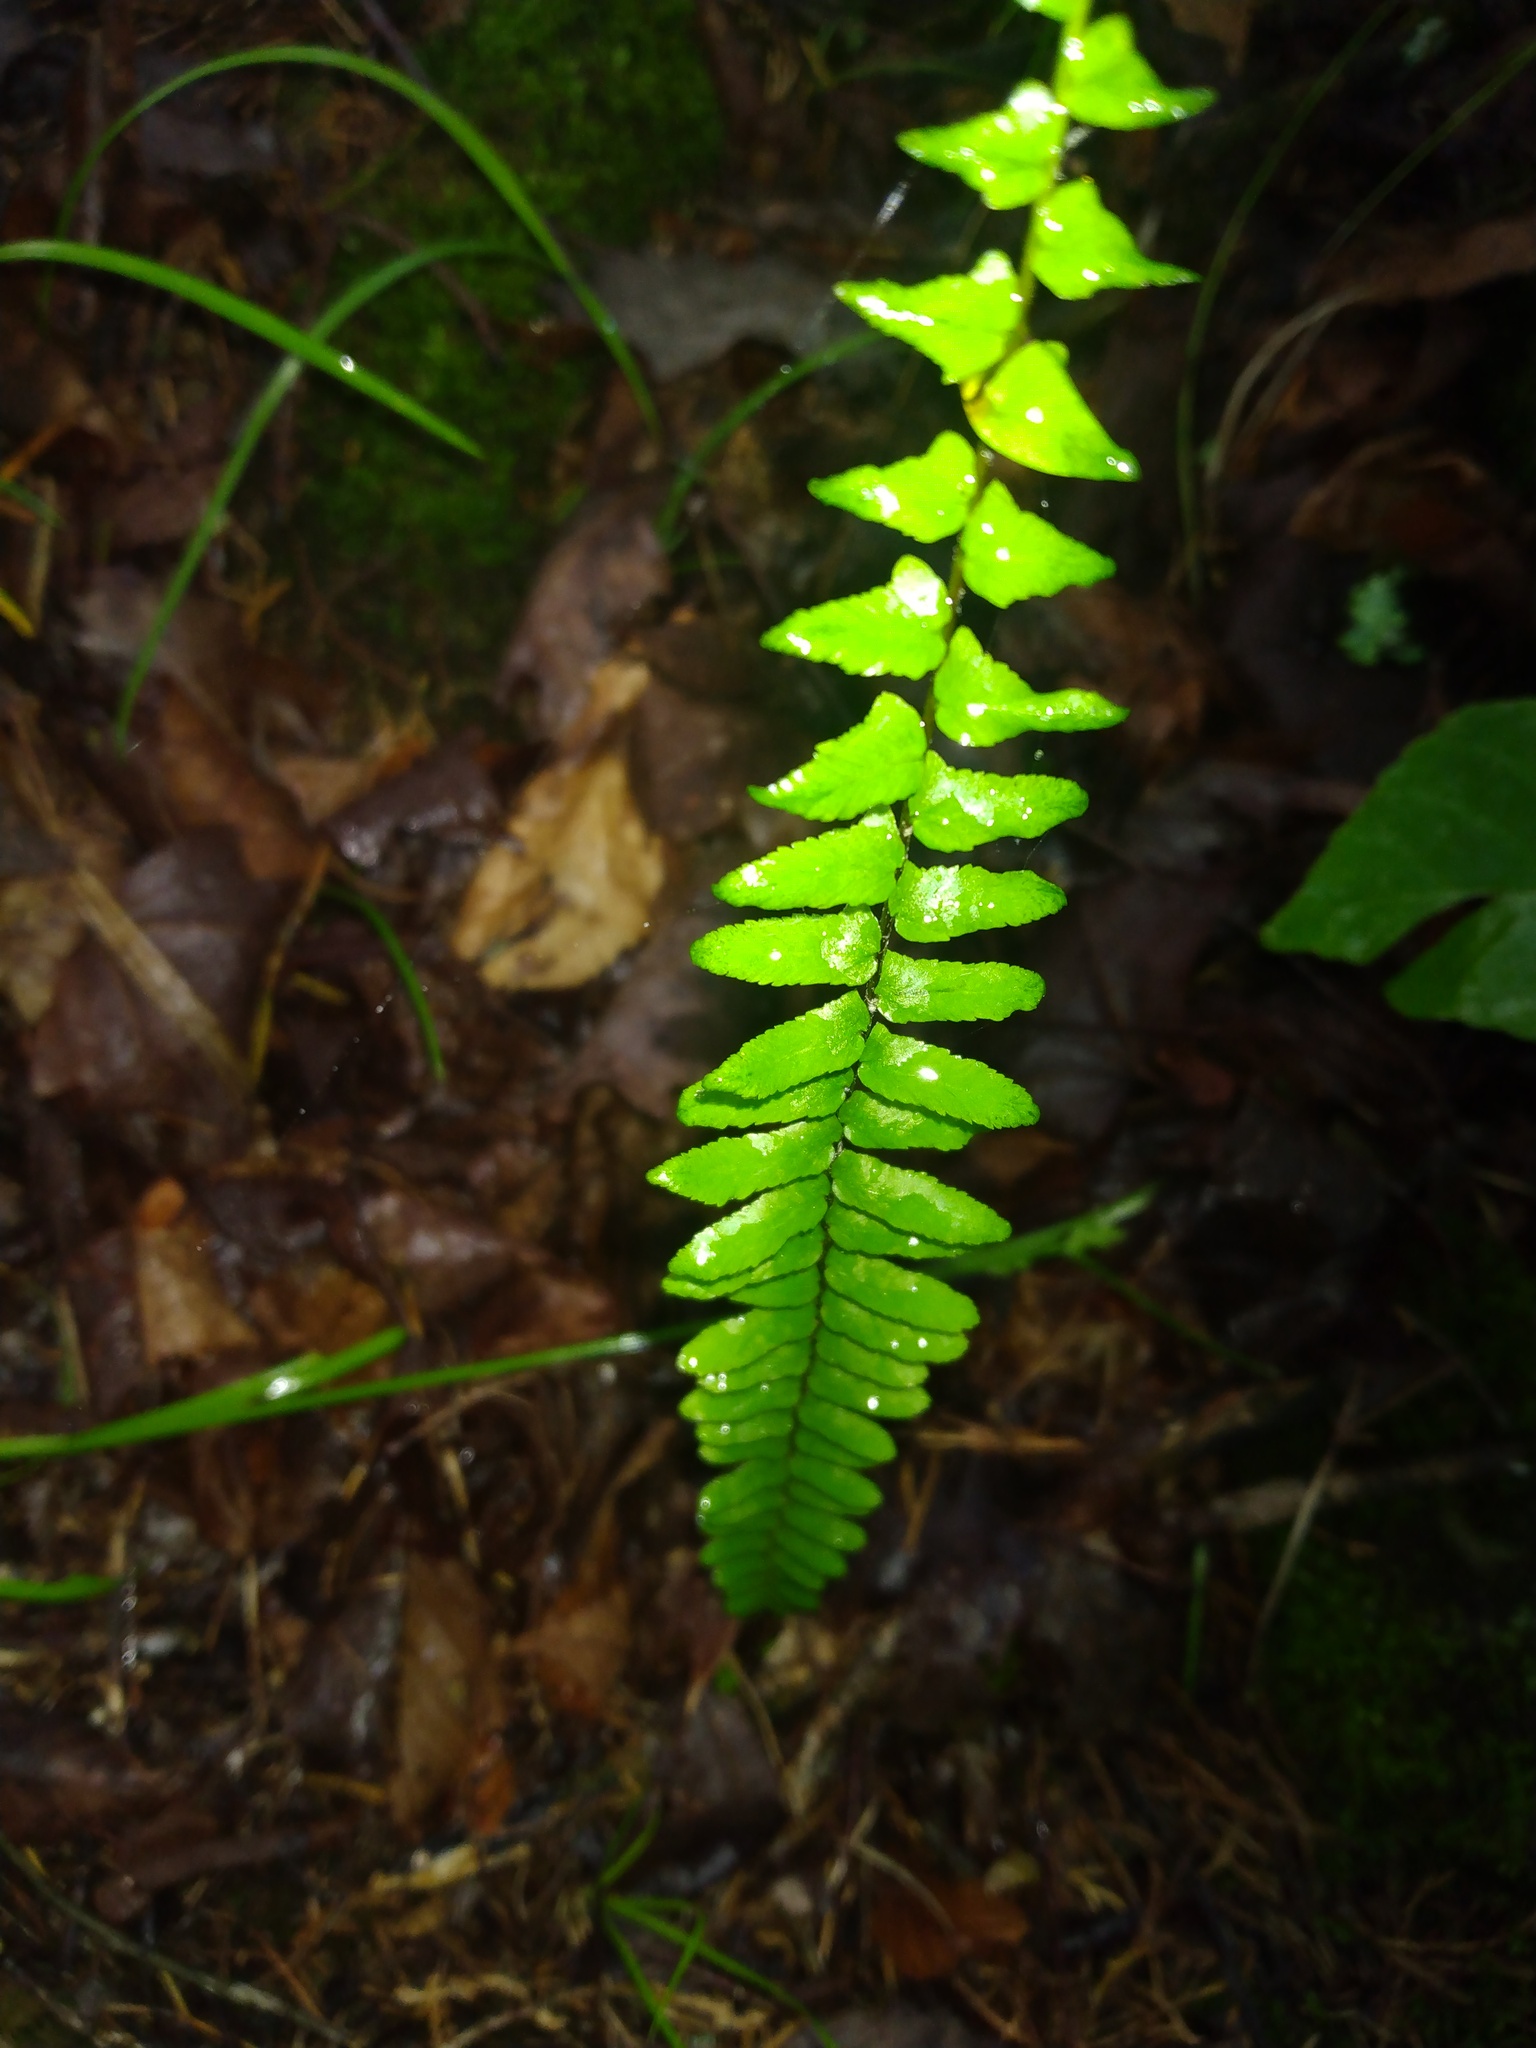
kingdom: Plantae
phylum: Tracheophyta
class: Polypodiopsida
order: Polypodiales
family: Aspleniaceae
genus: Asplenium
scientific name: Asplenium platyneuron
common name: Ebony spleenwort
